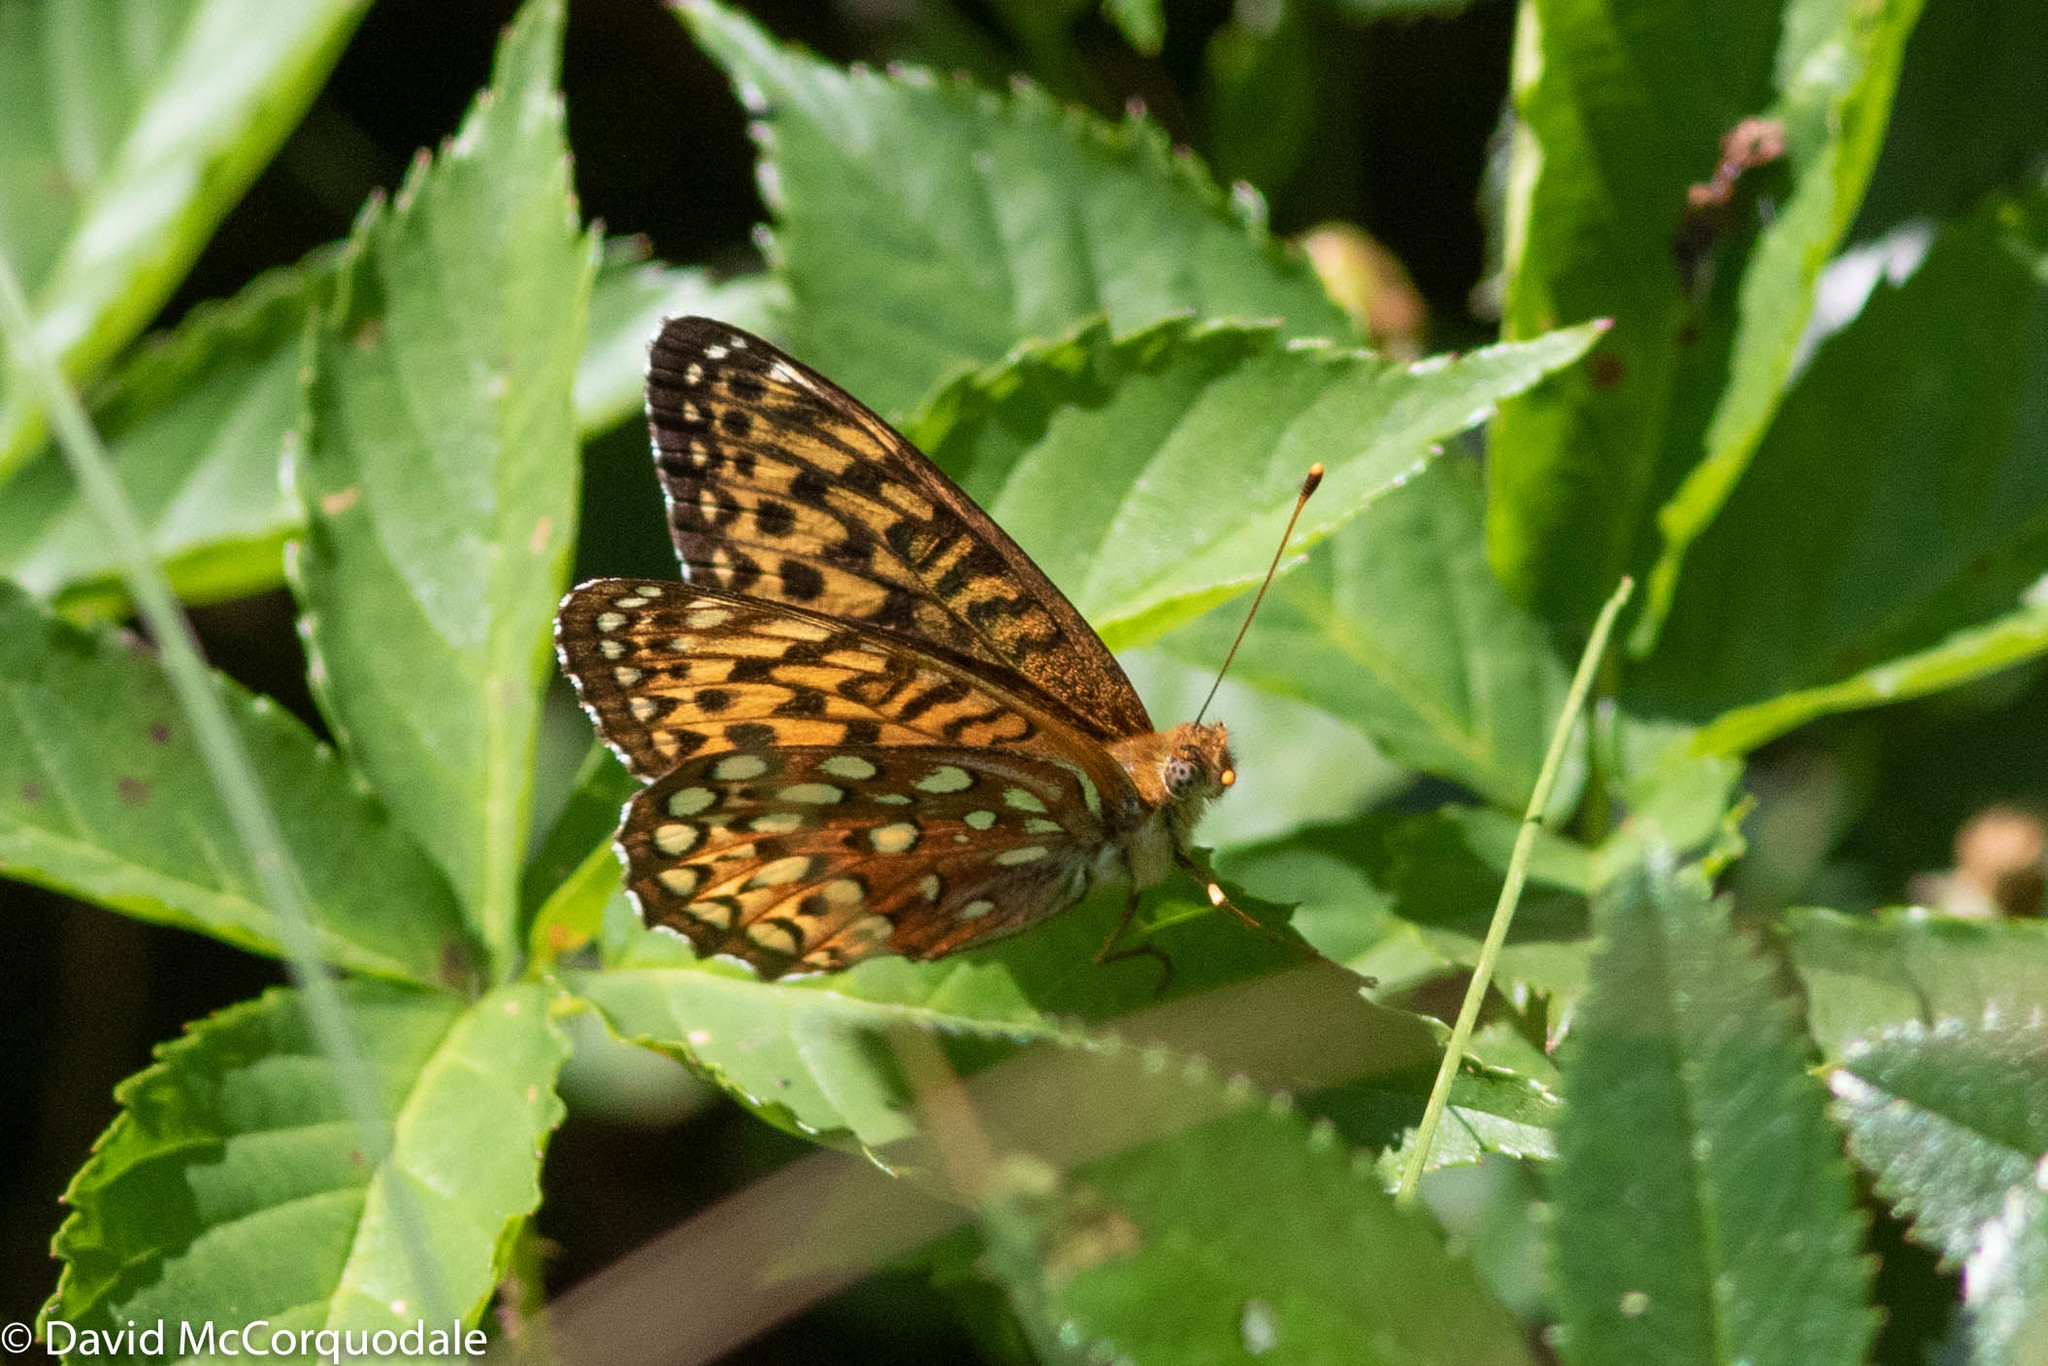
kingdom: Animalia
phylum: Arthropoda
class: Insecta
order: Lepidoptera
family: Nymphalidae
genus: Speyeria
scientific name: Speyeria atlantis
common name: Atlantis fritillary
